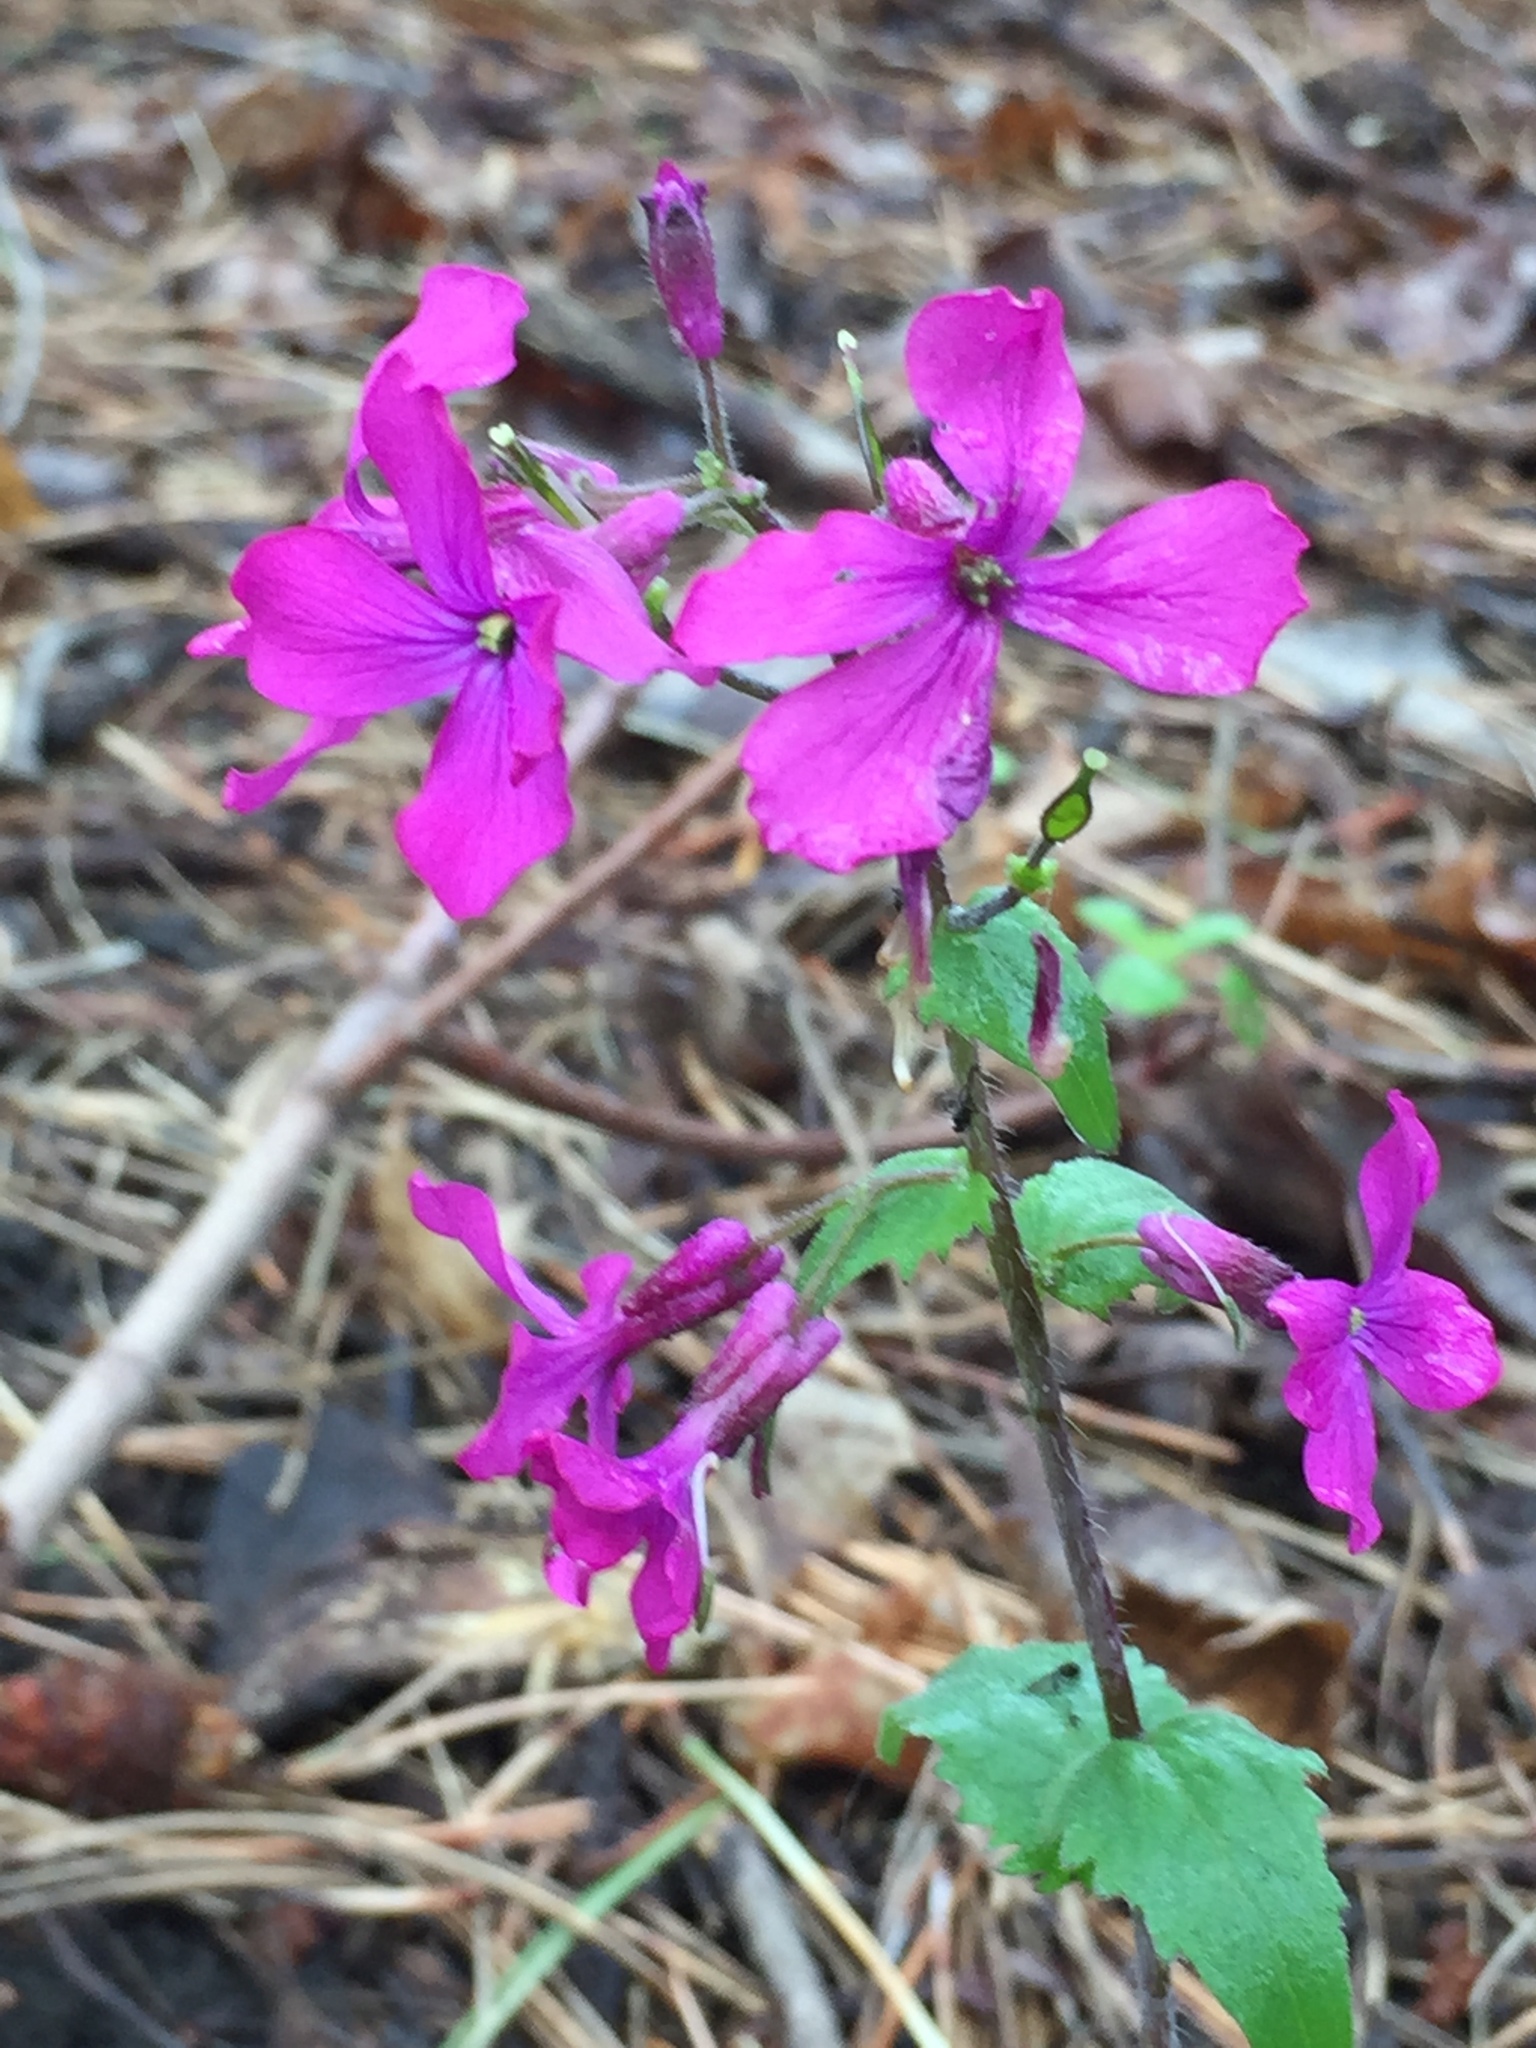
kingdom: Plantae
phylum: Tracheophyta
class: Magnoliopsida
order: Brassicales
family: Brassicaceae
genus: Lunaria
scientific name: Lunaria annua
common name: Honesty
